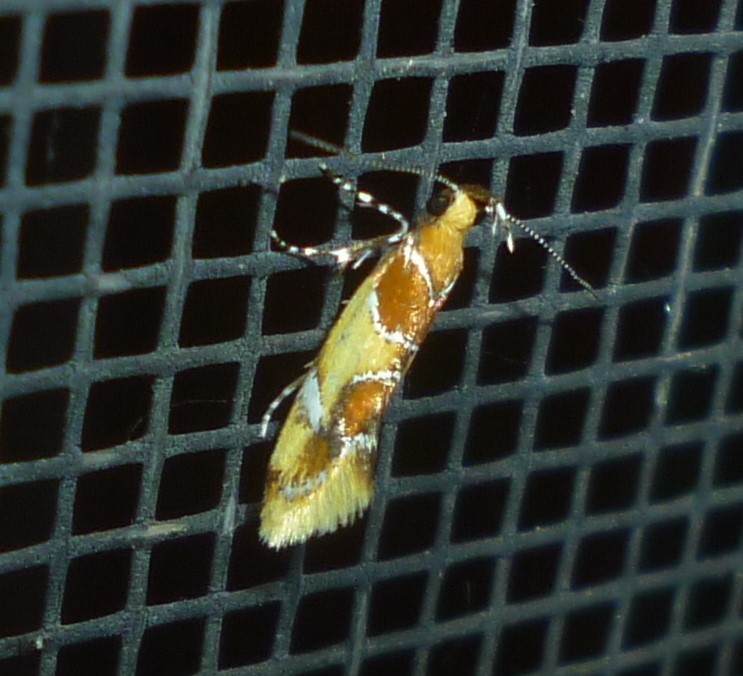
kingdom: Animalia
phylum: Arthropoda
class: Insecta
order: Lepidoptera
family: Oecophoridae
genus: Callima
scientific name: Callima argenticinctella
